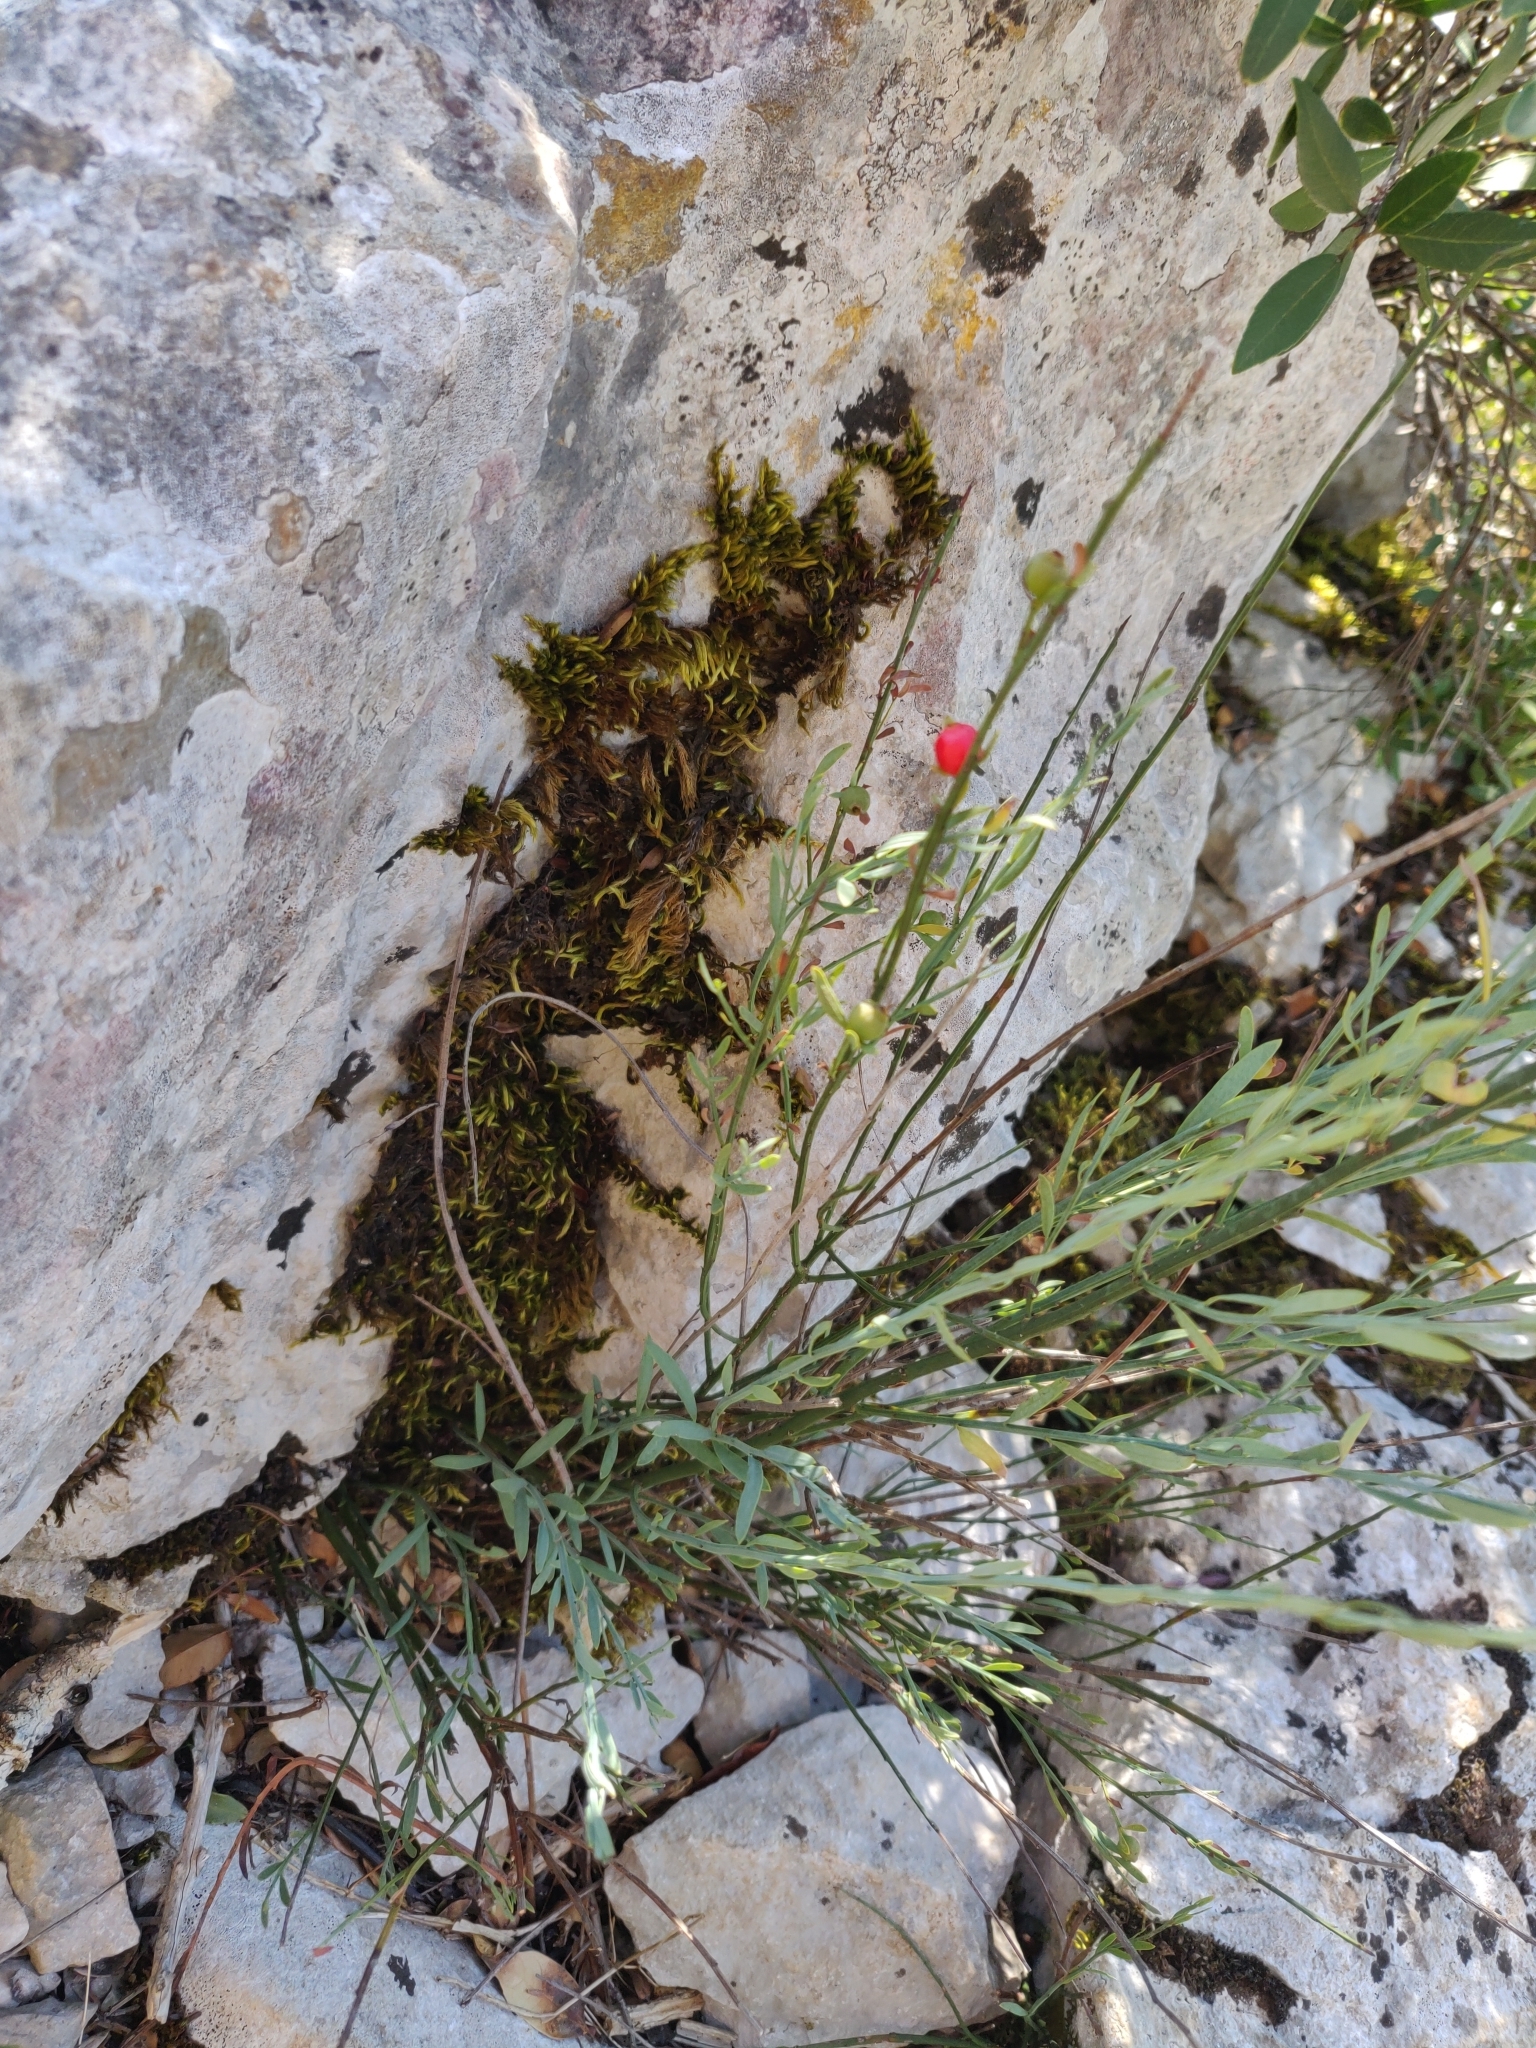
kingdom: Plantae
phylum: Tracheophyta
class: Magnoliopsida
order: Santalales
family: Santalaceae
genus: Osyris
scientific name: Osyris alba
